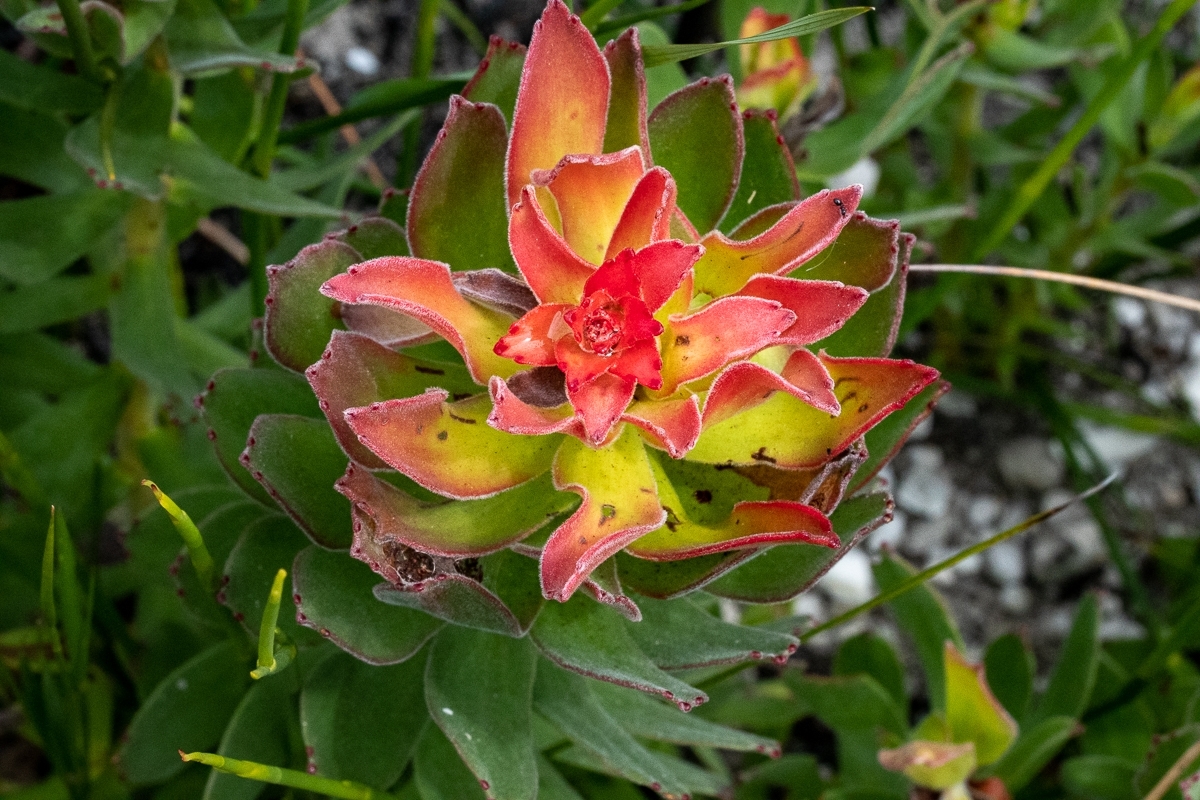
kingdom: Plantae
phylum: Tracheophyta
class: Magnoliopsida
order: Proteales
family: Proteaceae
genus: Mimetes
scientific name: Mimetes cucullatus
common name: Common pagoda
